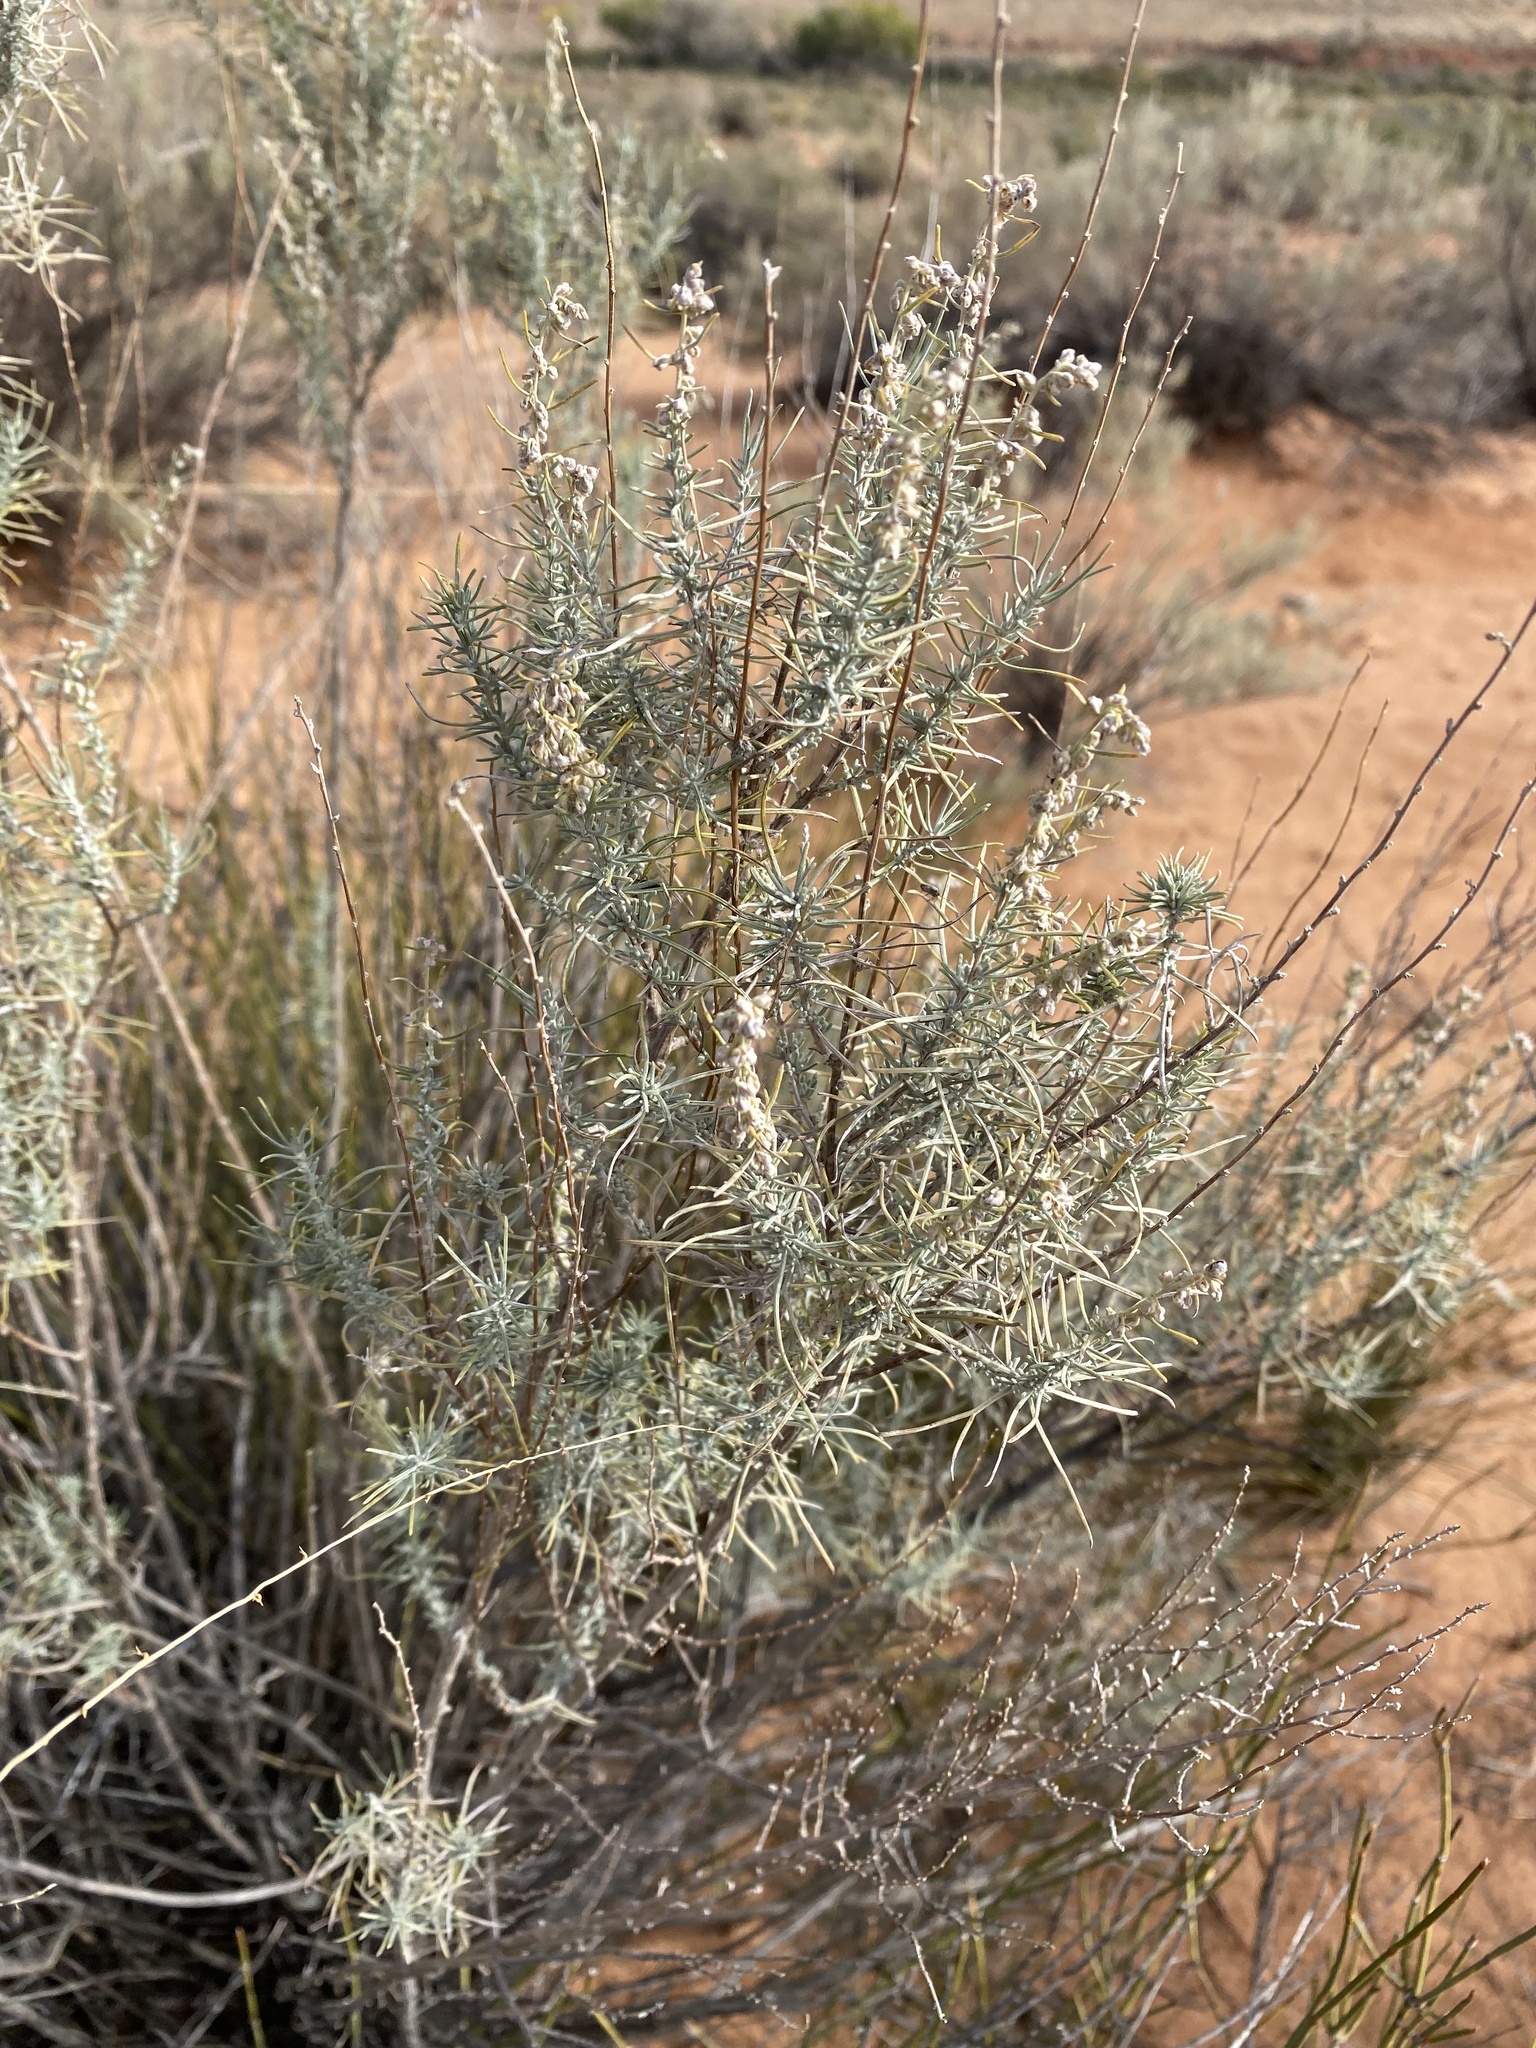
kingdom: Plantae
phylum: Tracheophyta
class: Magnoliopsida
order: Asterales
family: Asteraceae
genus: Artemisia
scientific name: Artemisia filifolia
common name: Sand-sage
